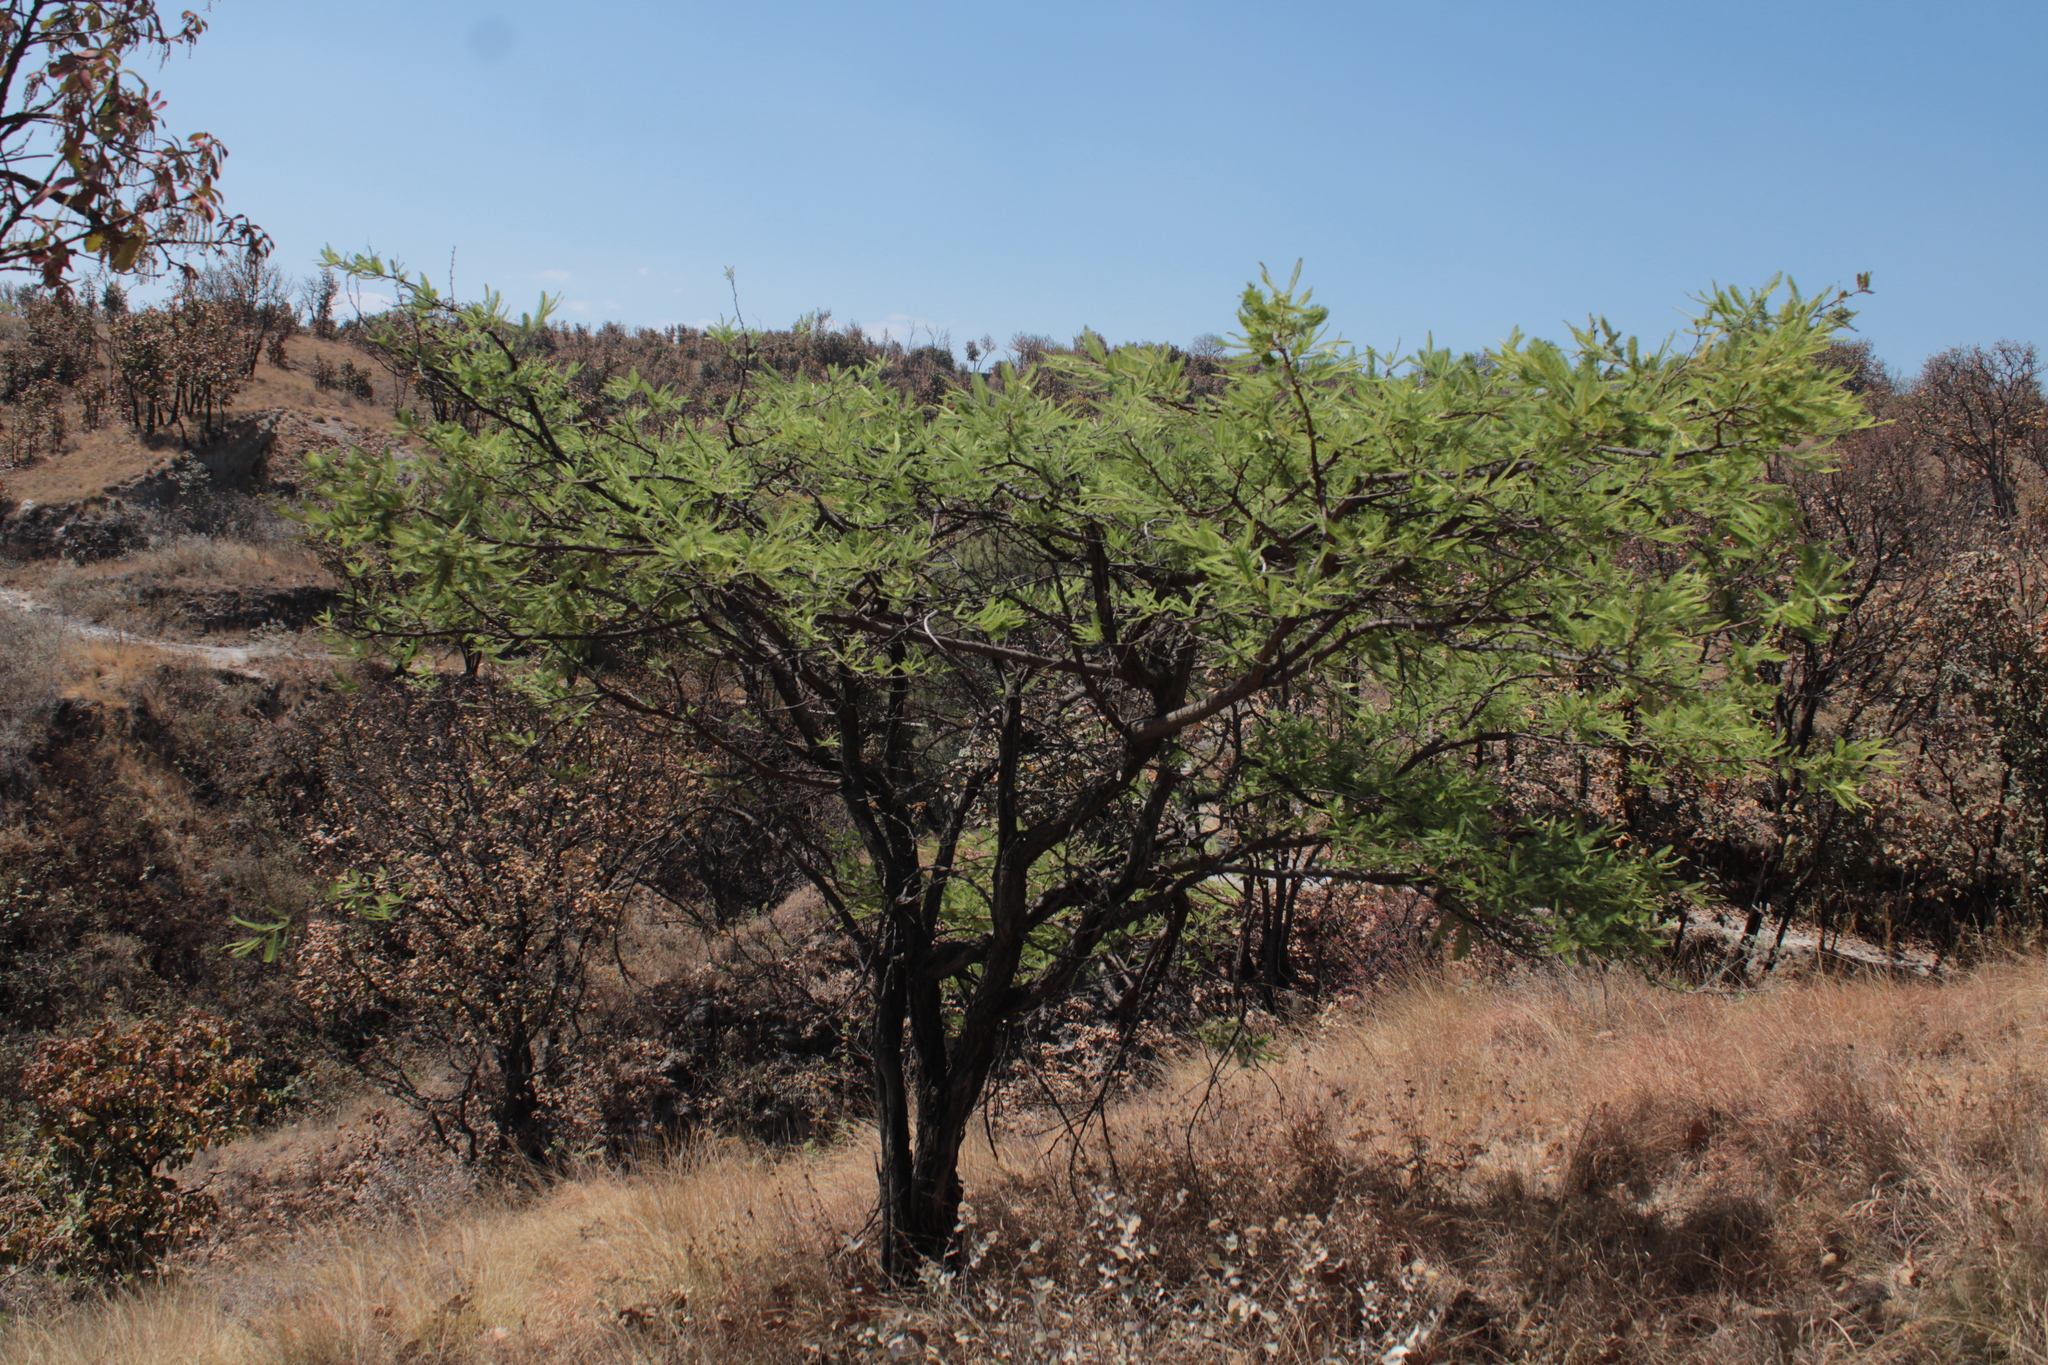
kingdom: Plantae
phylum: Tracheophyta
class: Magnoliopsida
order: Fabales
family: Fabaceae
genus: Vachellia
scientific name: Vachellia pennatula
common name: Fern-leaf acacia
